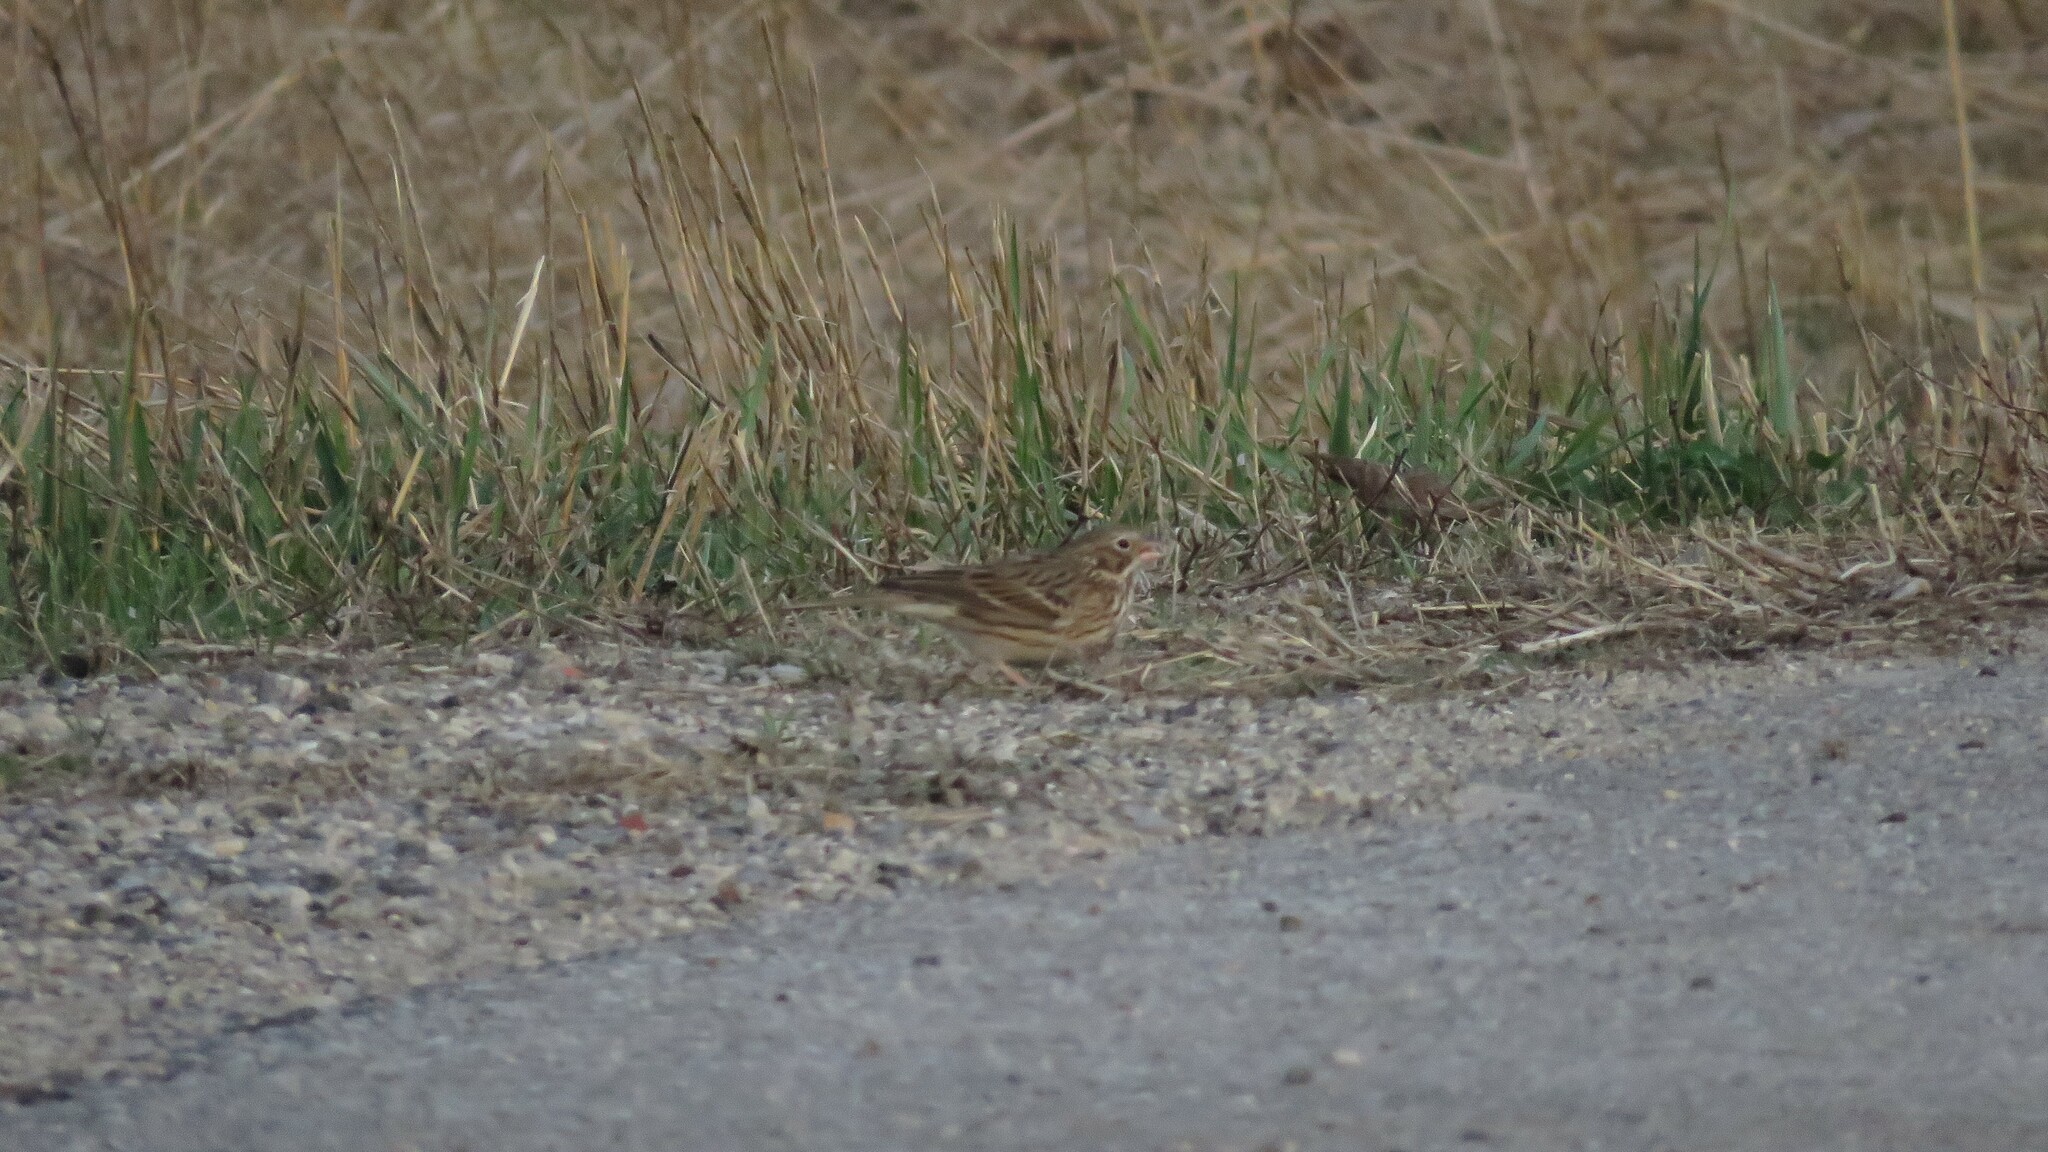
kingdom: Animalia
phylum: Chordata
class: Aves
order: Passeriformes
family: Passerellidae
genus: Pooecetes
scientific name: Pooecetes gramineus
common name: Vesper sparrow
